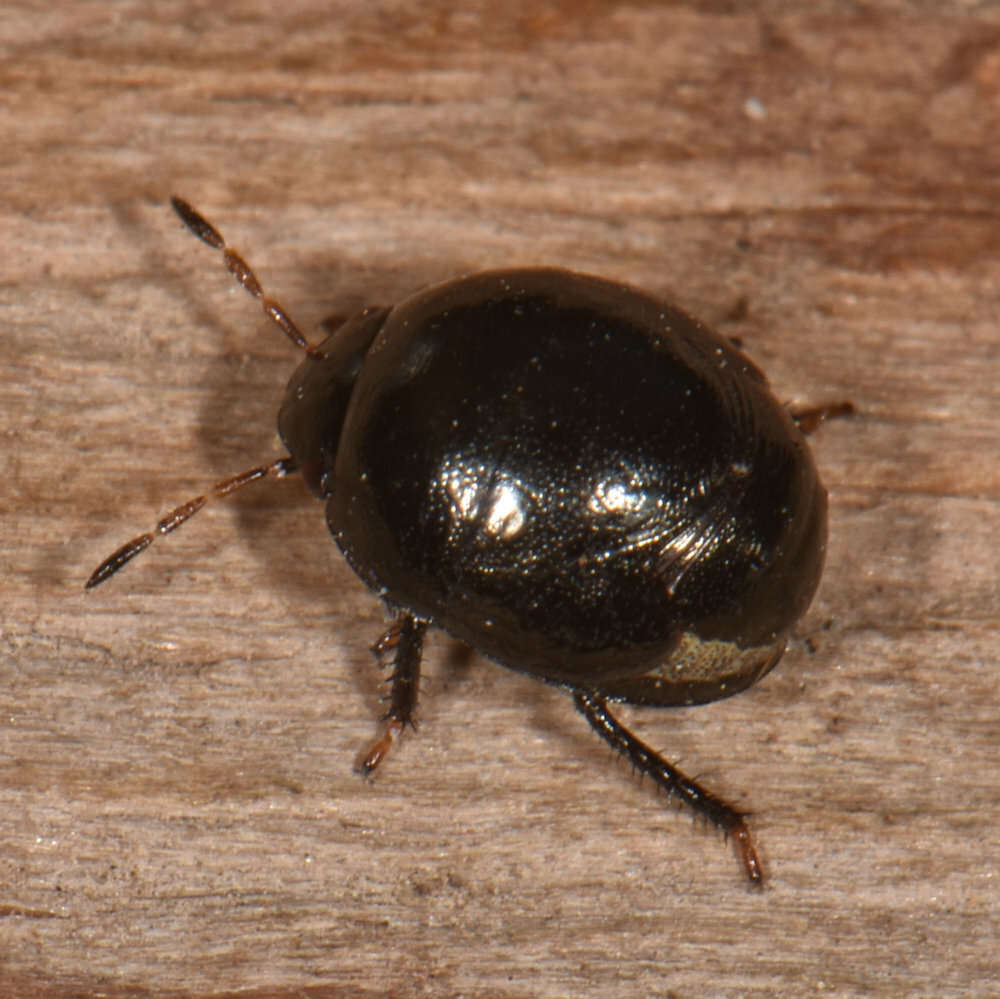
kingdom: Animalia
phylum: Arthropoda
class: Insecta
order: Hemiptera
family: Thyreocoridae
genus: Corimelaena
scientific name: Corimelaena pulicaria
